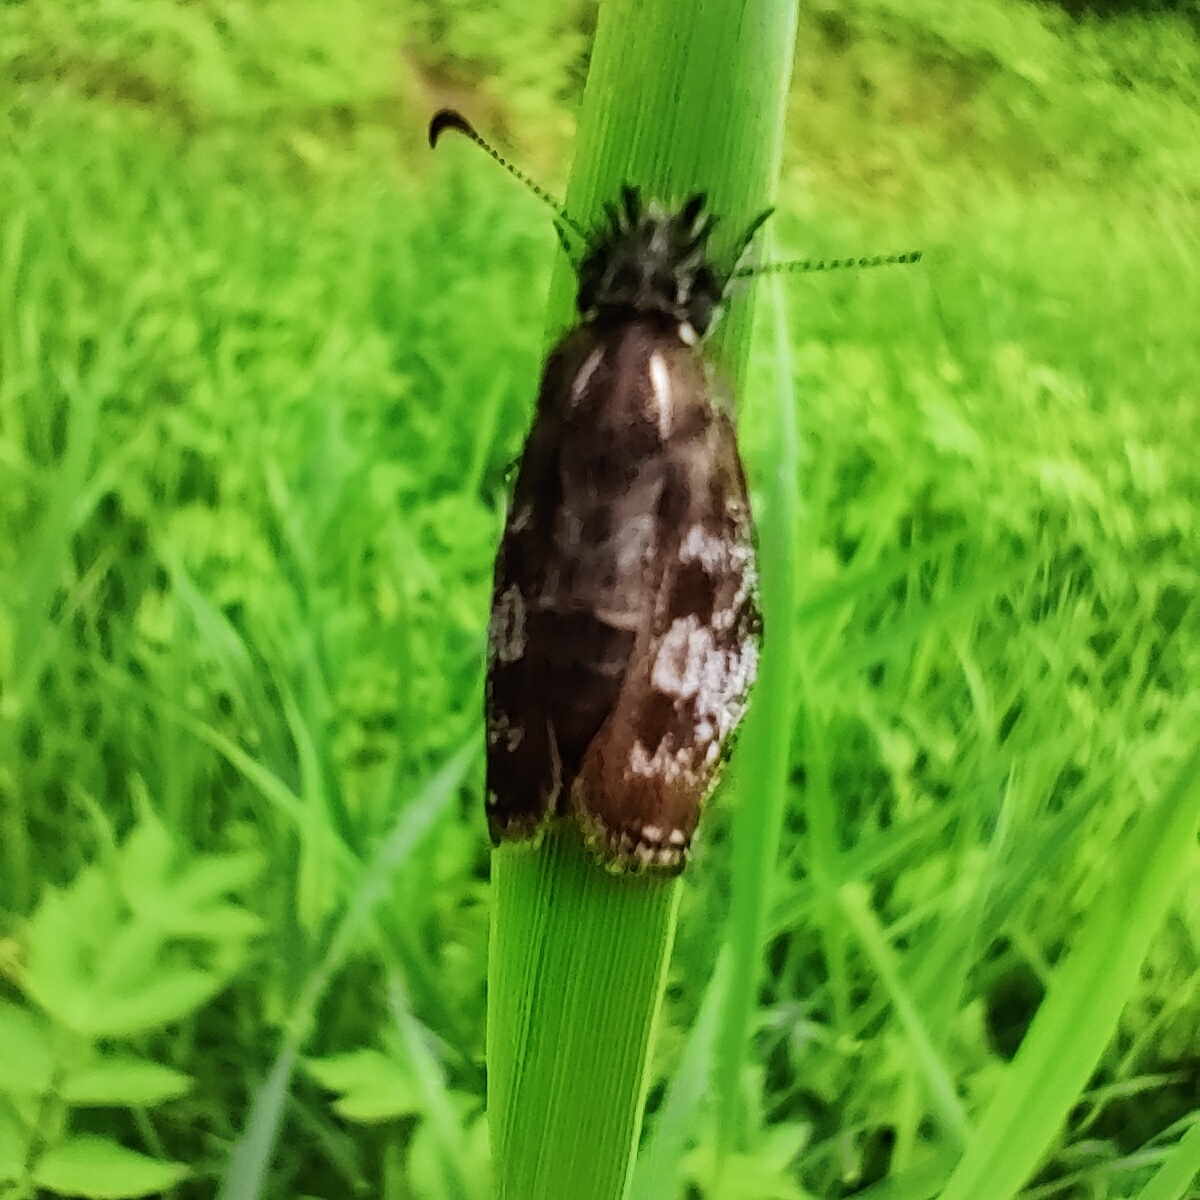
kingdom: Animalia
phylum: Arthropoda
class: Insecta
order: Lepidoptera
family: Hesperiidae
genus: Erynnis
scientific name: Erynnis tages
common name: Dingy skipper
